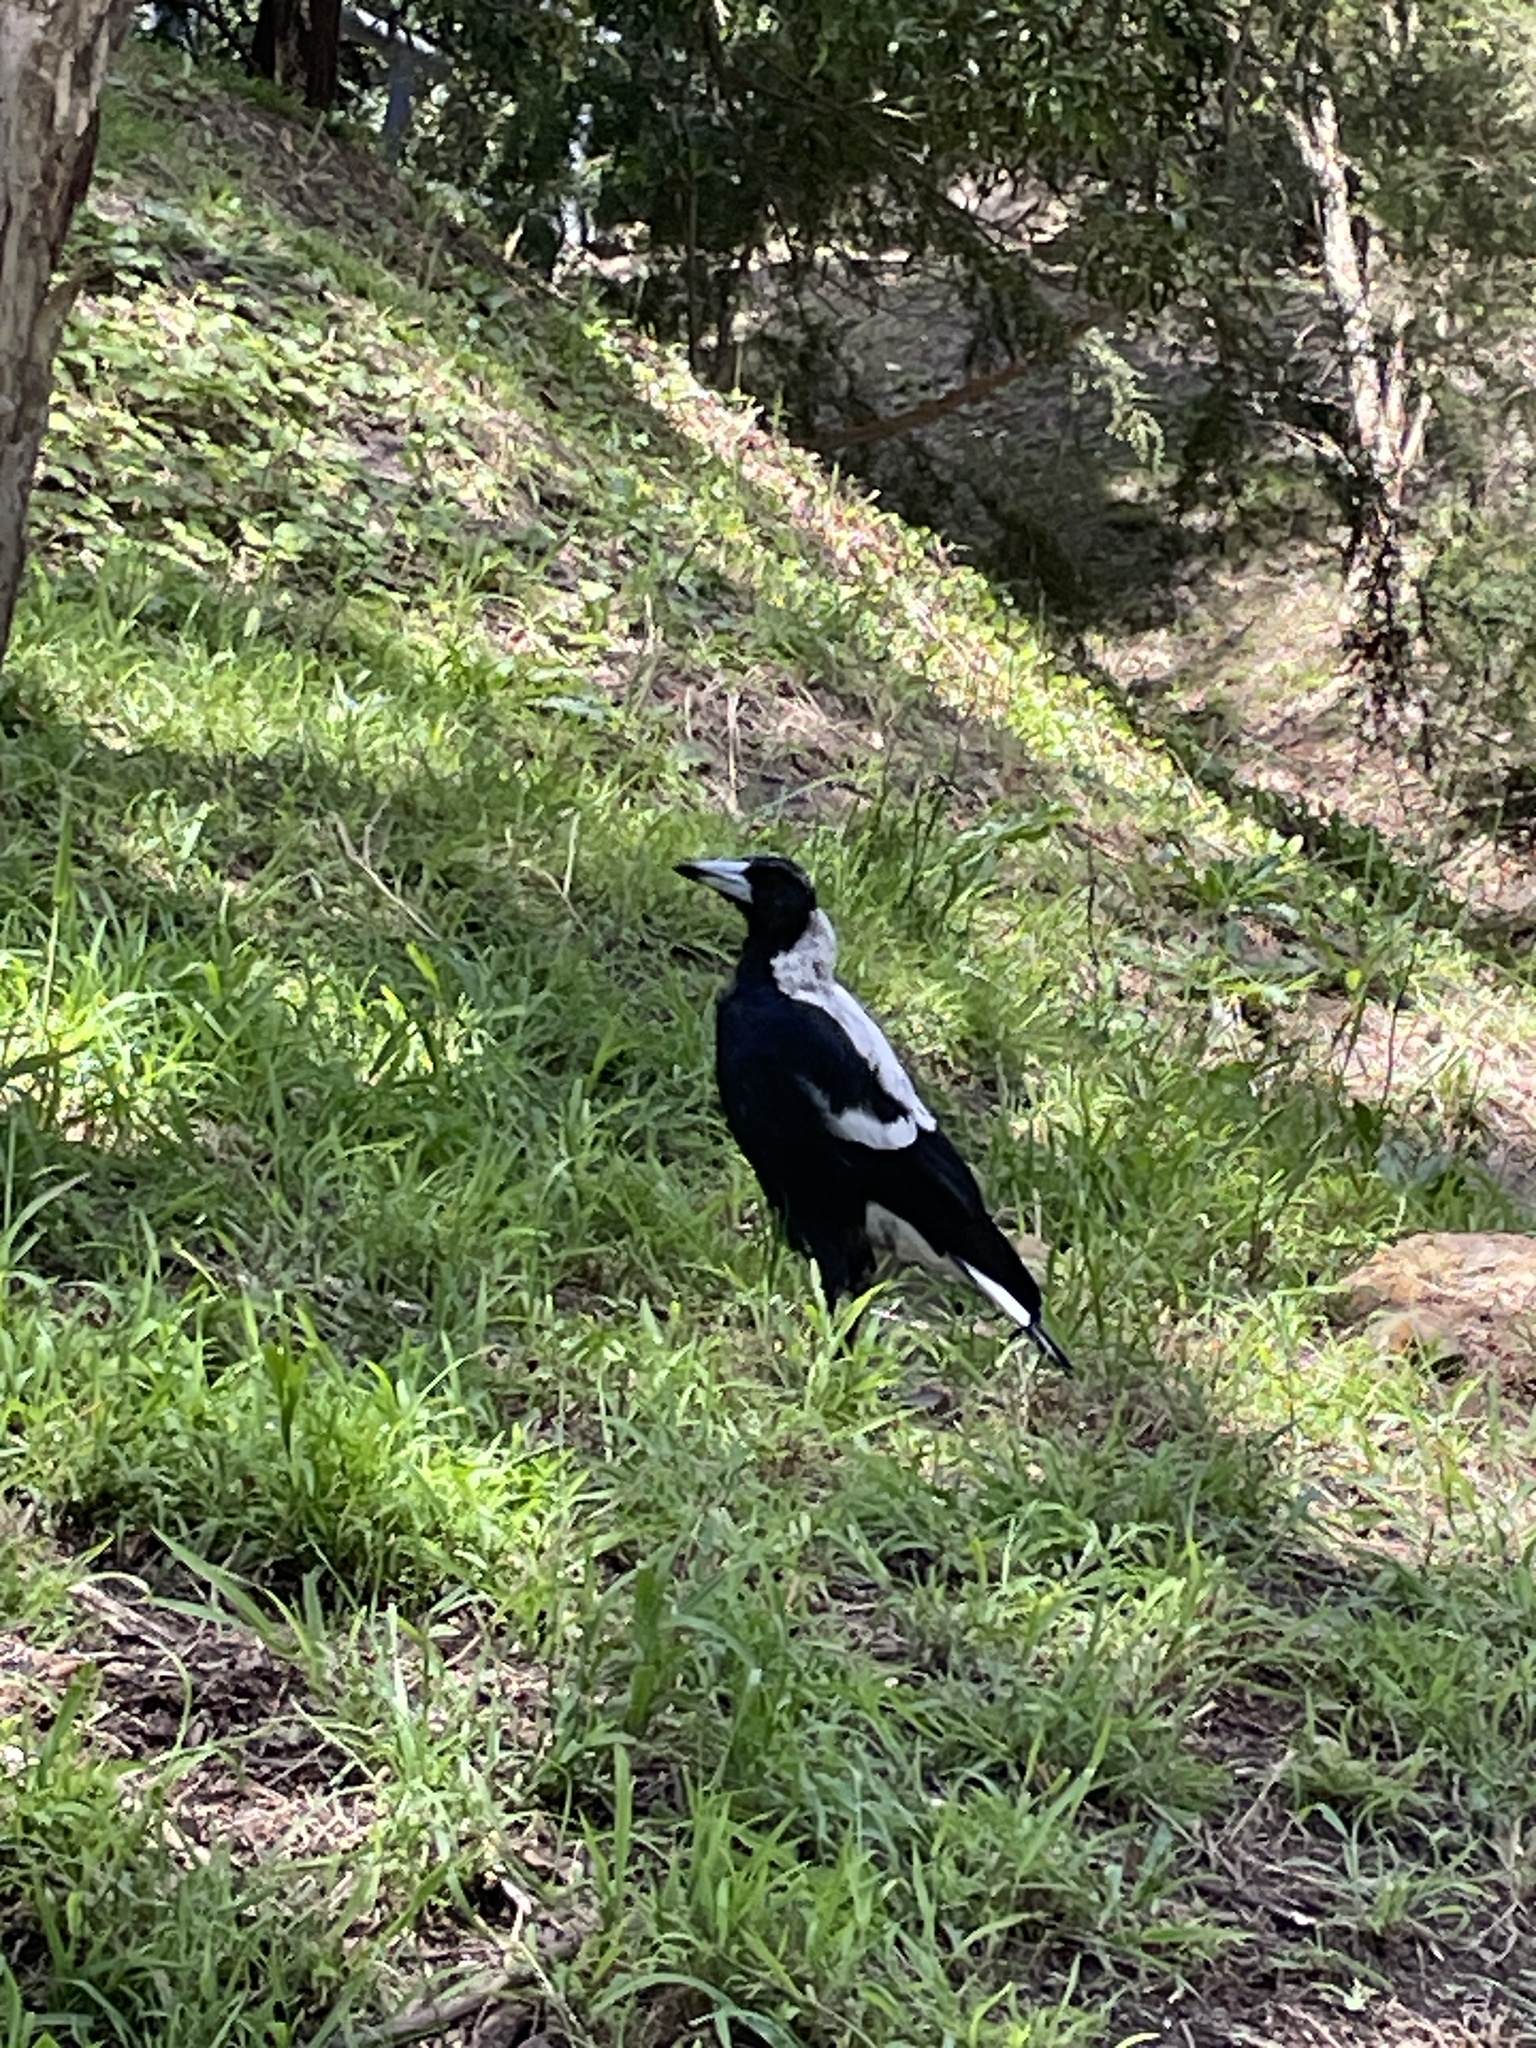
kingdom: Animalia
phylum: Chordata
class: Aves
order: Passeriformes
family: Cracticidae
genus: Gymnorhina
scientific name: Gymnorhina tibicen
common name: Australian magpie
